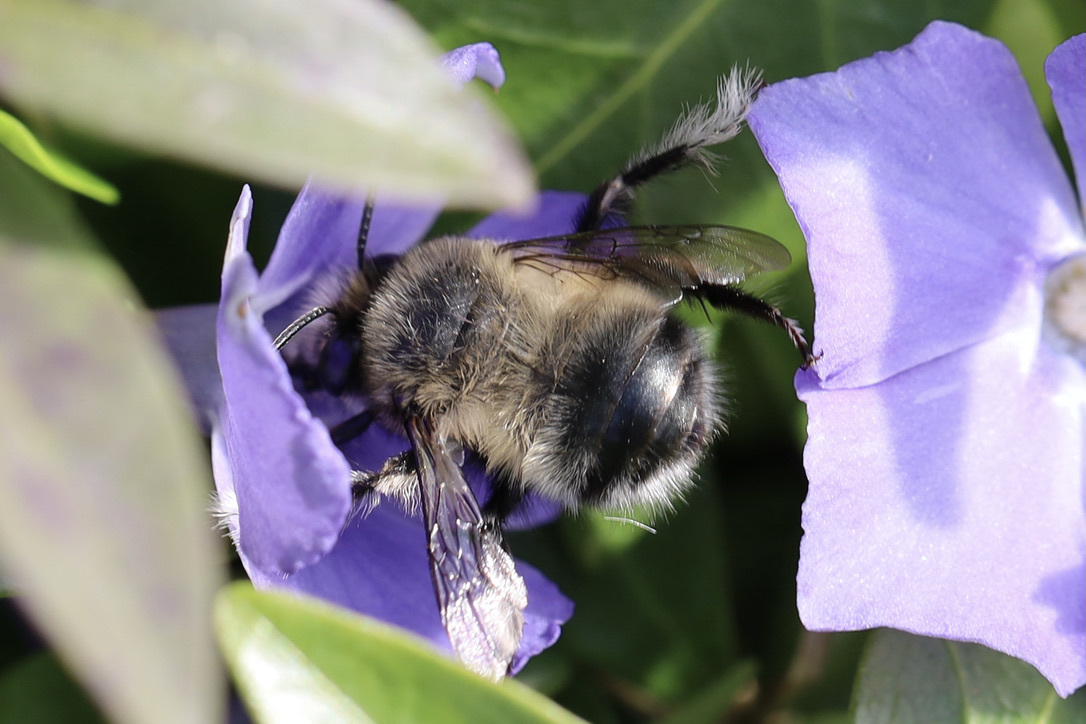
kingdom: Animalia
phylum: Arthropoda
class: Insecta
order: Hymenoptera
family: Apidae
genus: Anthophora
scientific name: Anthophora pacifica
